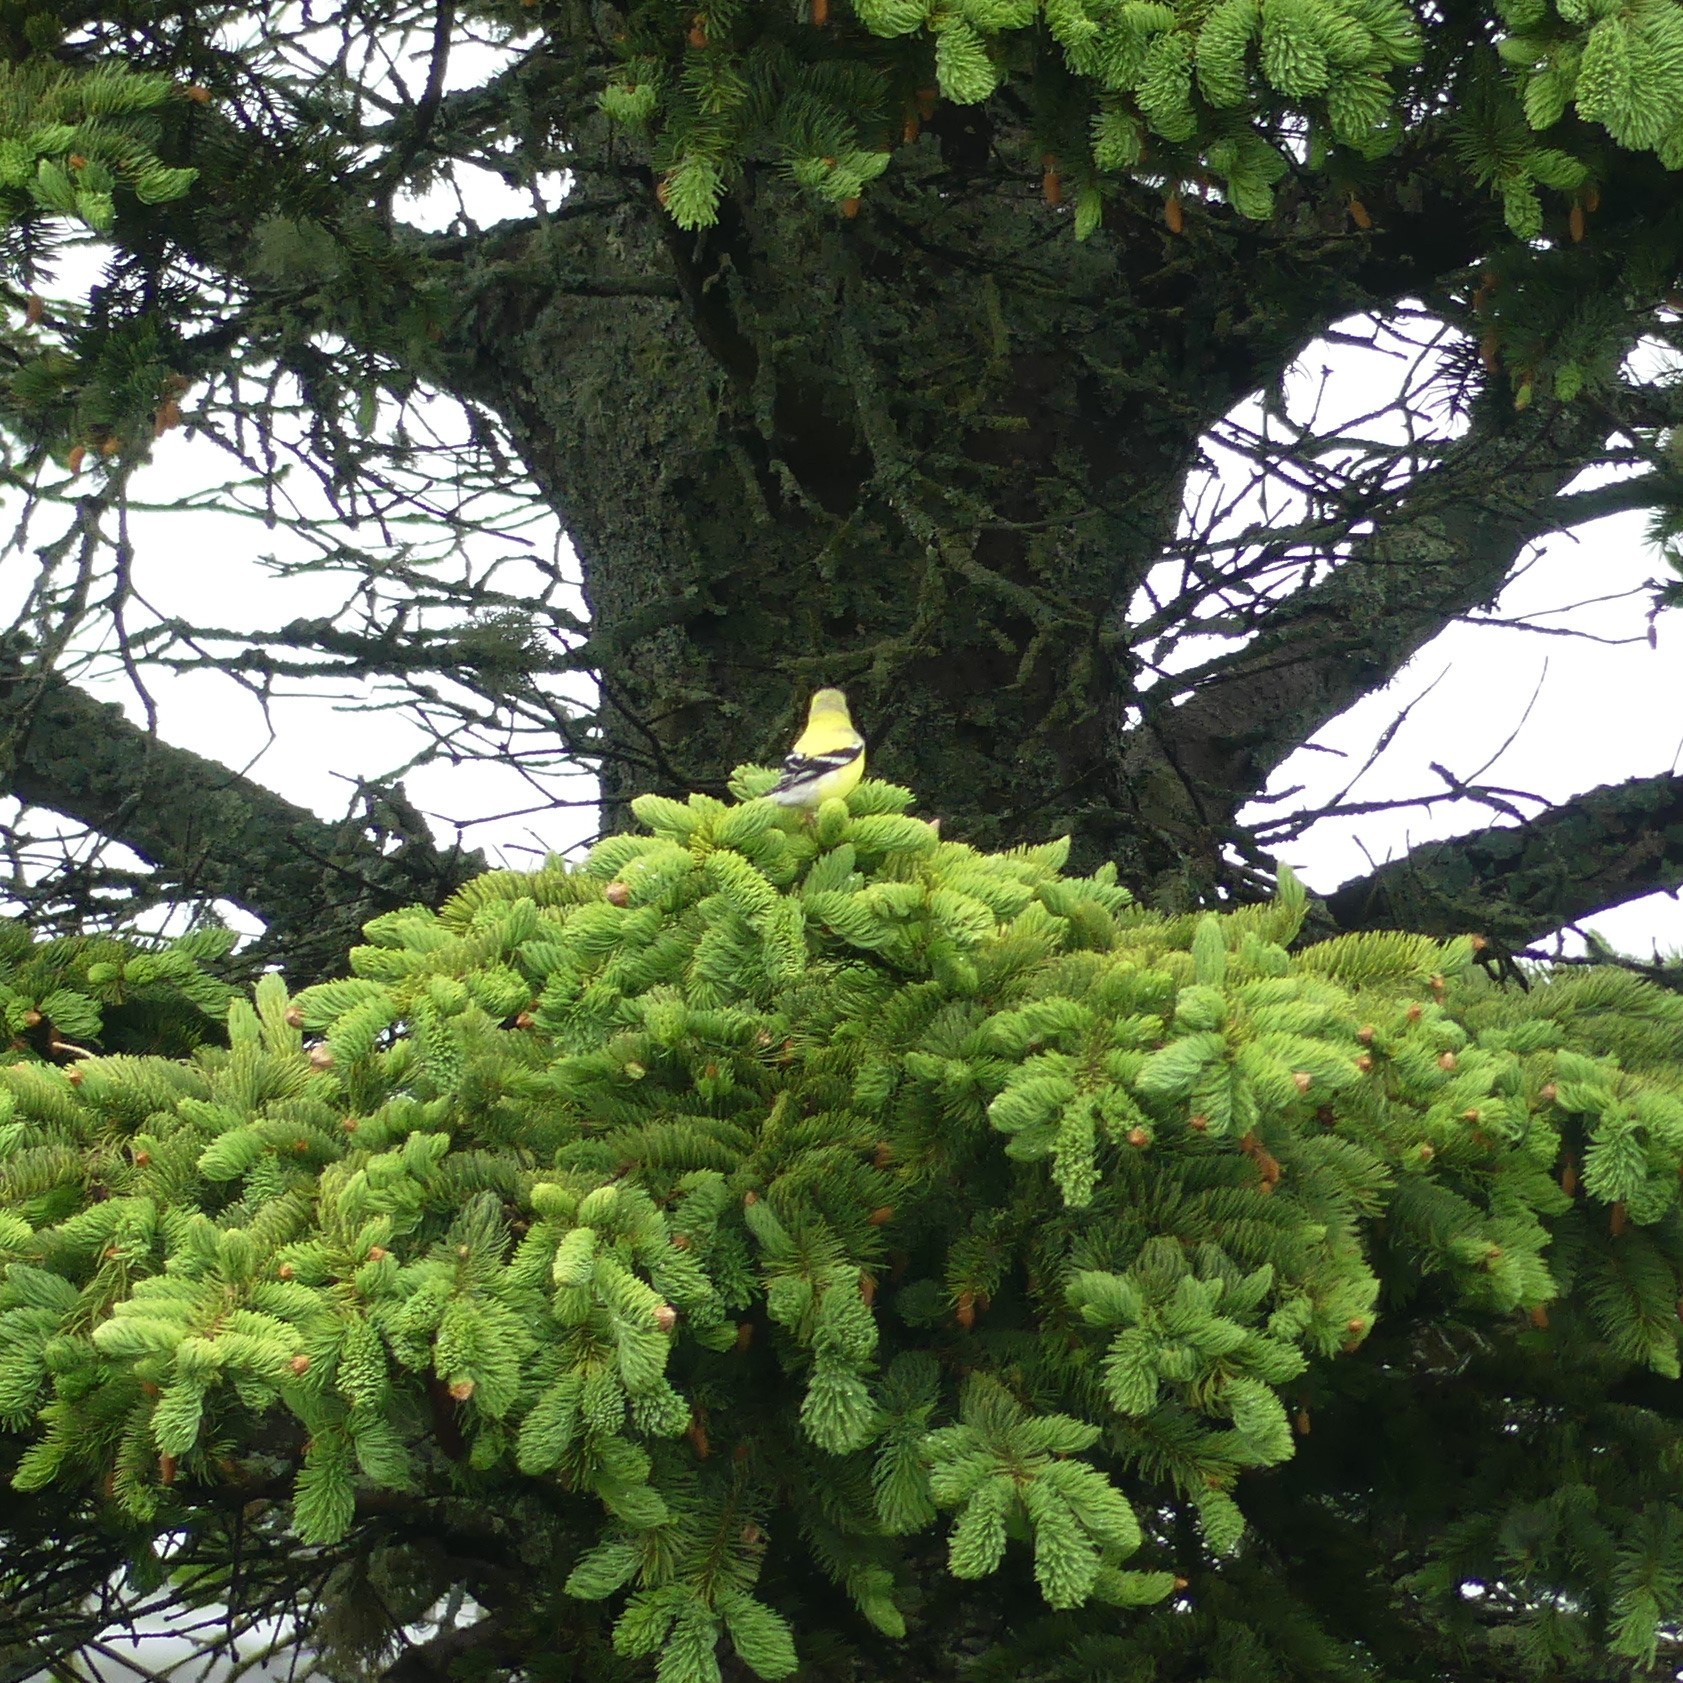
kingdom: Animalia
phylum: Chordata
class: Aves
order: Passeriformes
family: Fringillidae
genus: Spinus
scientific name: Spinus tristis
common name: American goldfinch
